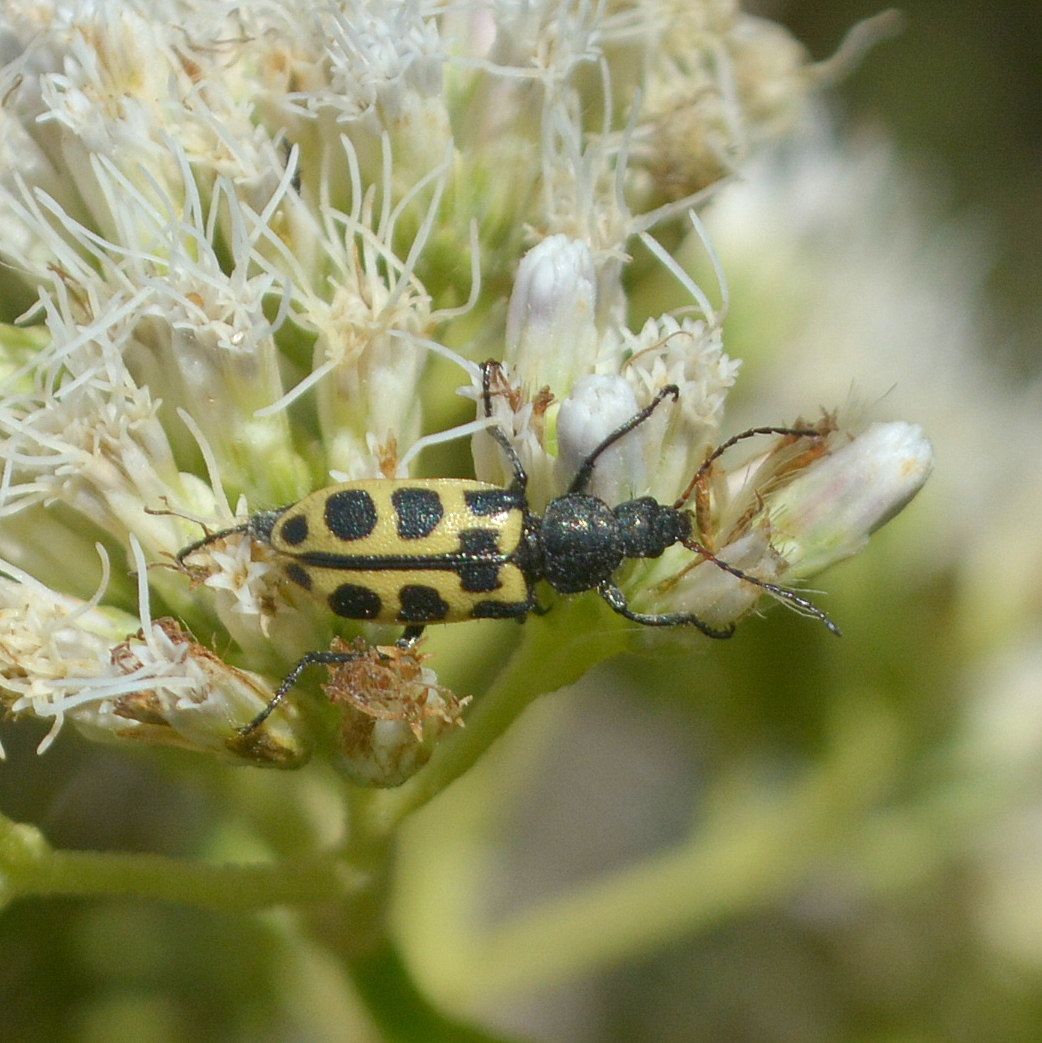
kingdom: Animalia
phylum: Arthropoda
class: Insecta
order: Coleoptera
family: Melyridae
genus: Astylus
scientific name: Astylus
